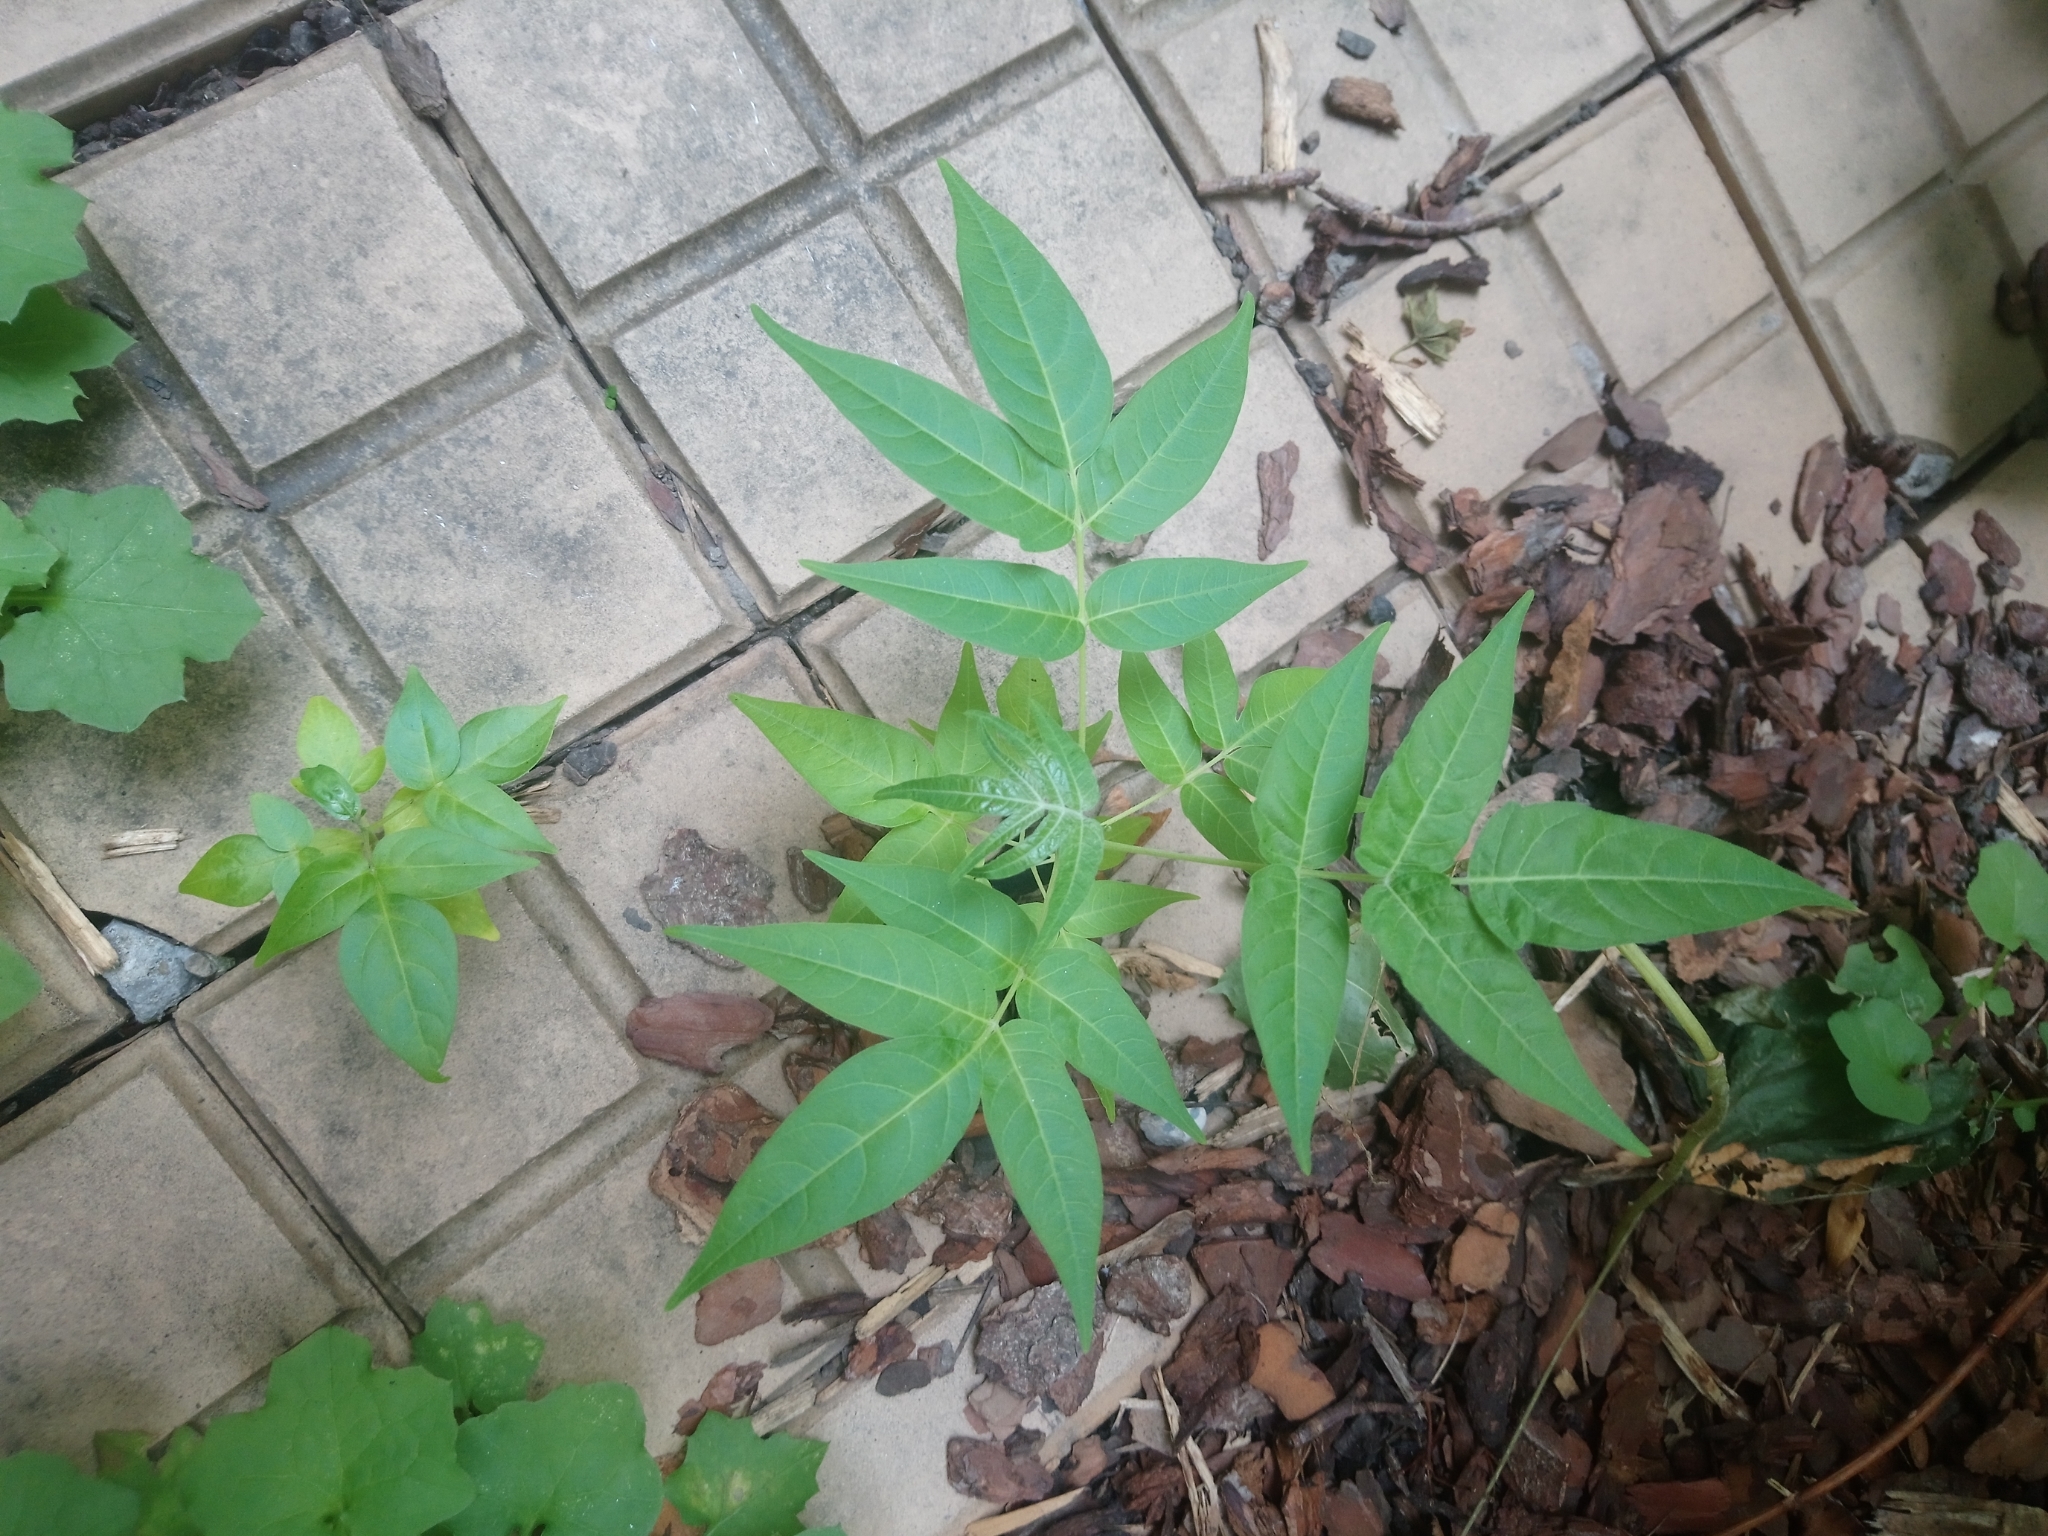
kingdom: Plantae
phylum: Tracheophyta
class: Magnoliopsida
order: Sapindales
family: Simaroubaceae
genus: Ailanthus
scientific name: Ailanthus altissima
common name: Tree-of-heaven
